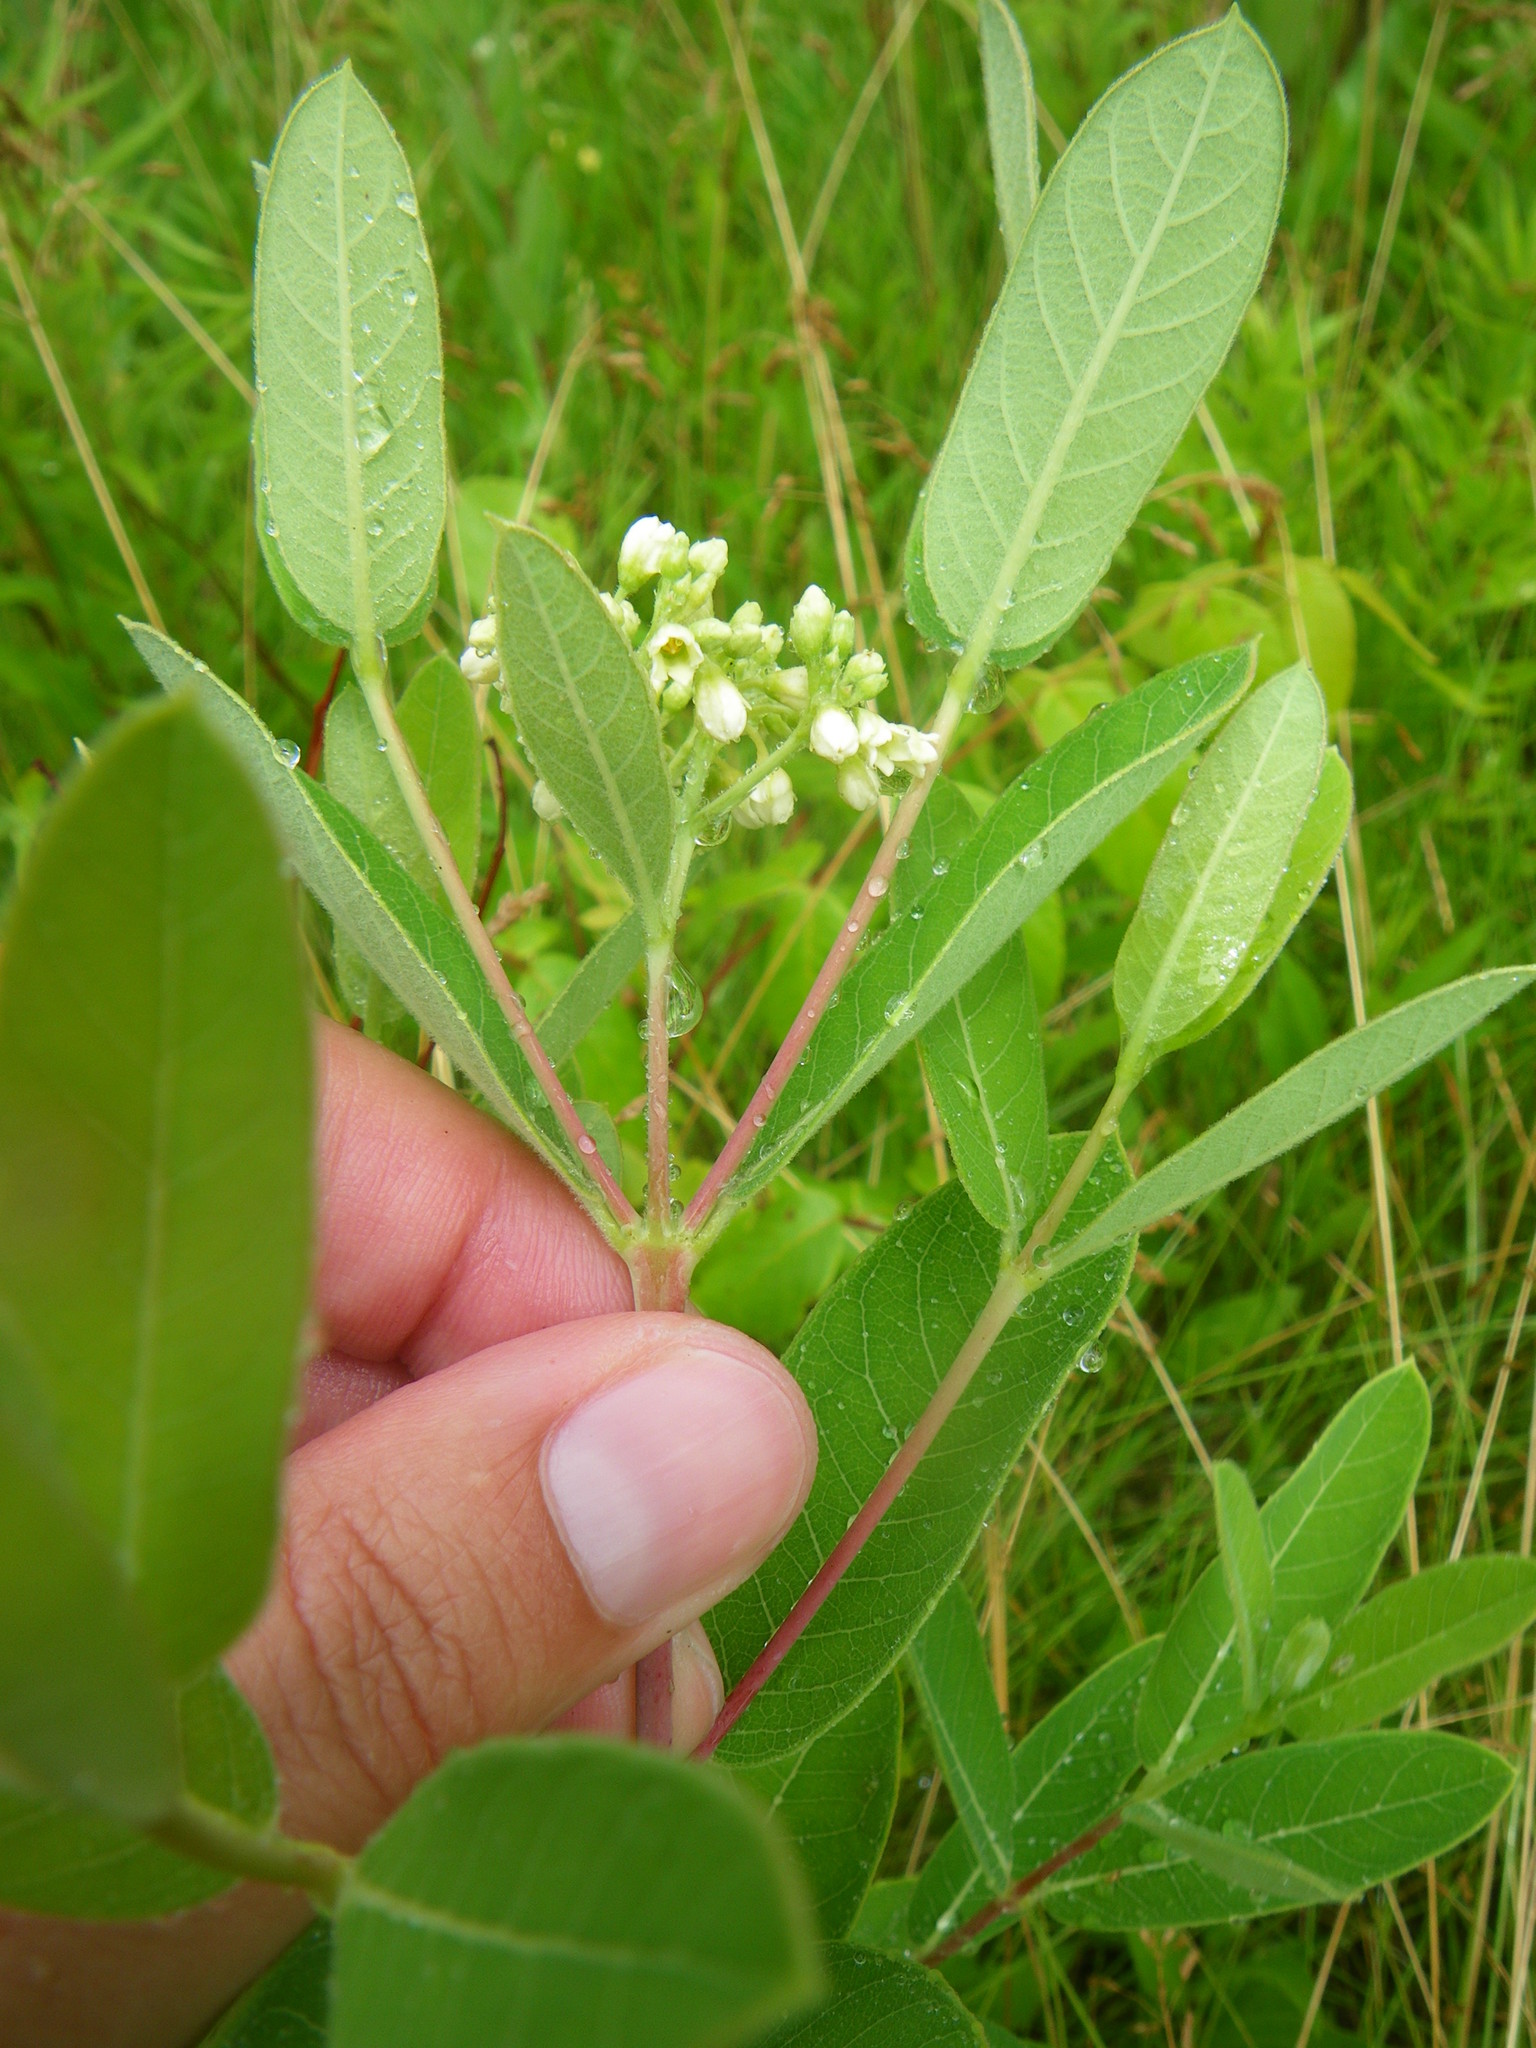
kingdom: Plantae
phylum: Tracheophyta
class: Magnoliopsida
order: Gentianales
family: Apocynaceae
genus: Apocynum
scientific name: Apocynum cannabinum
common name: Hemp dogbane
